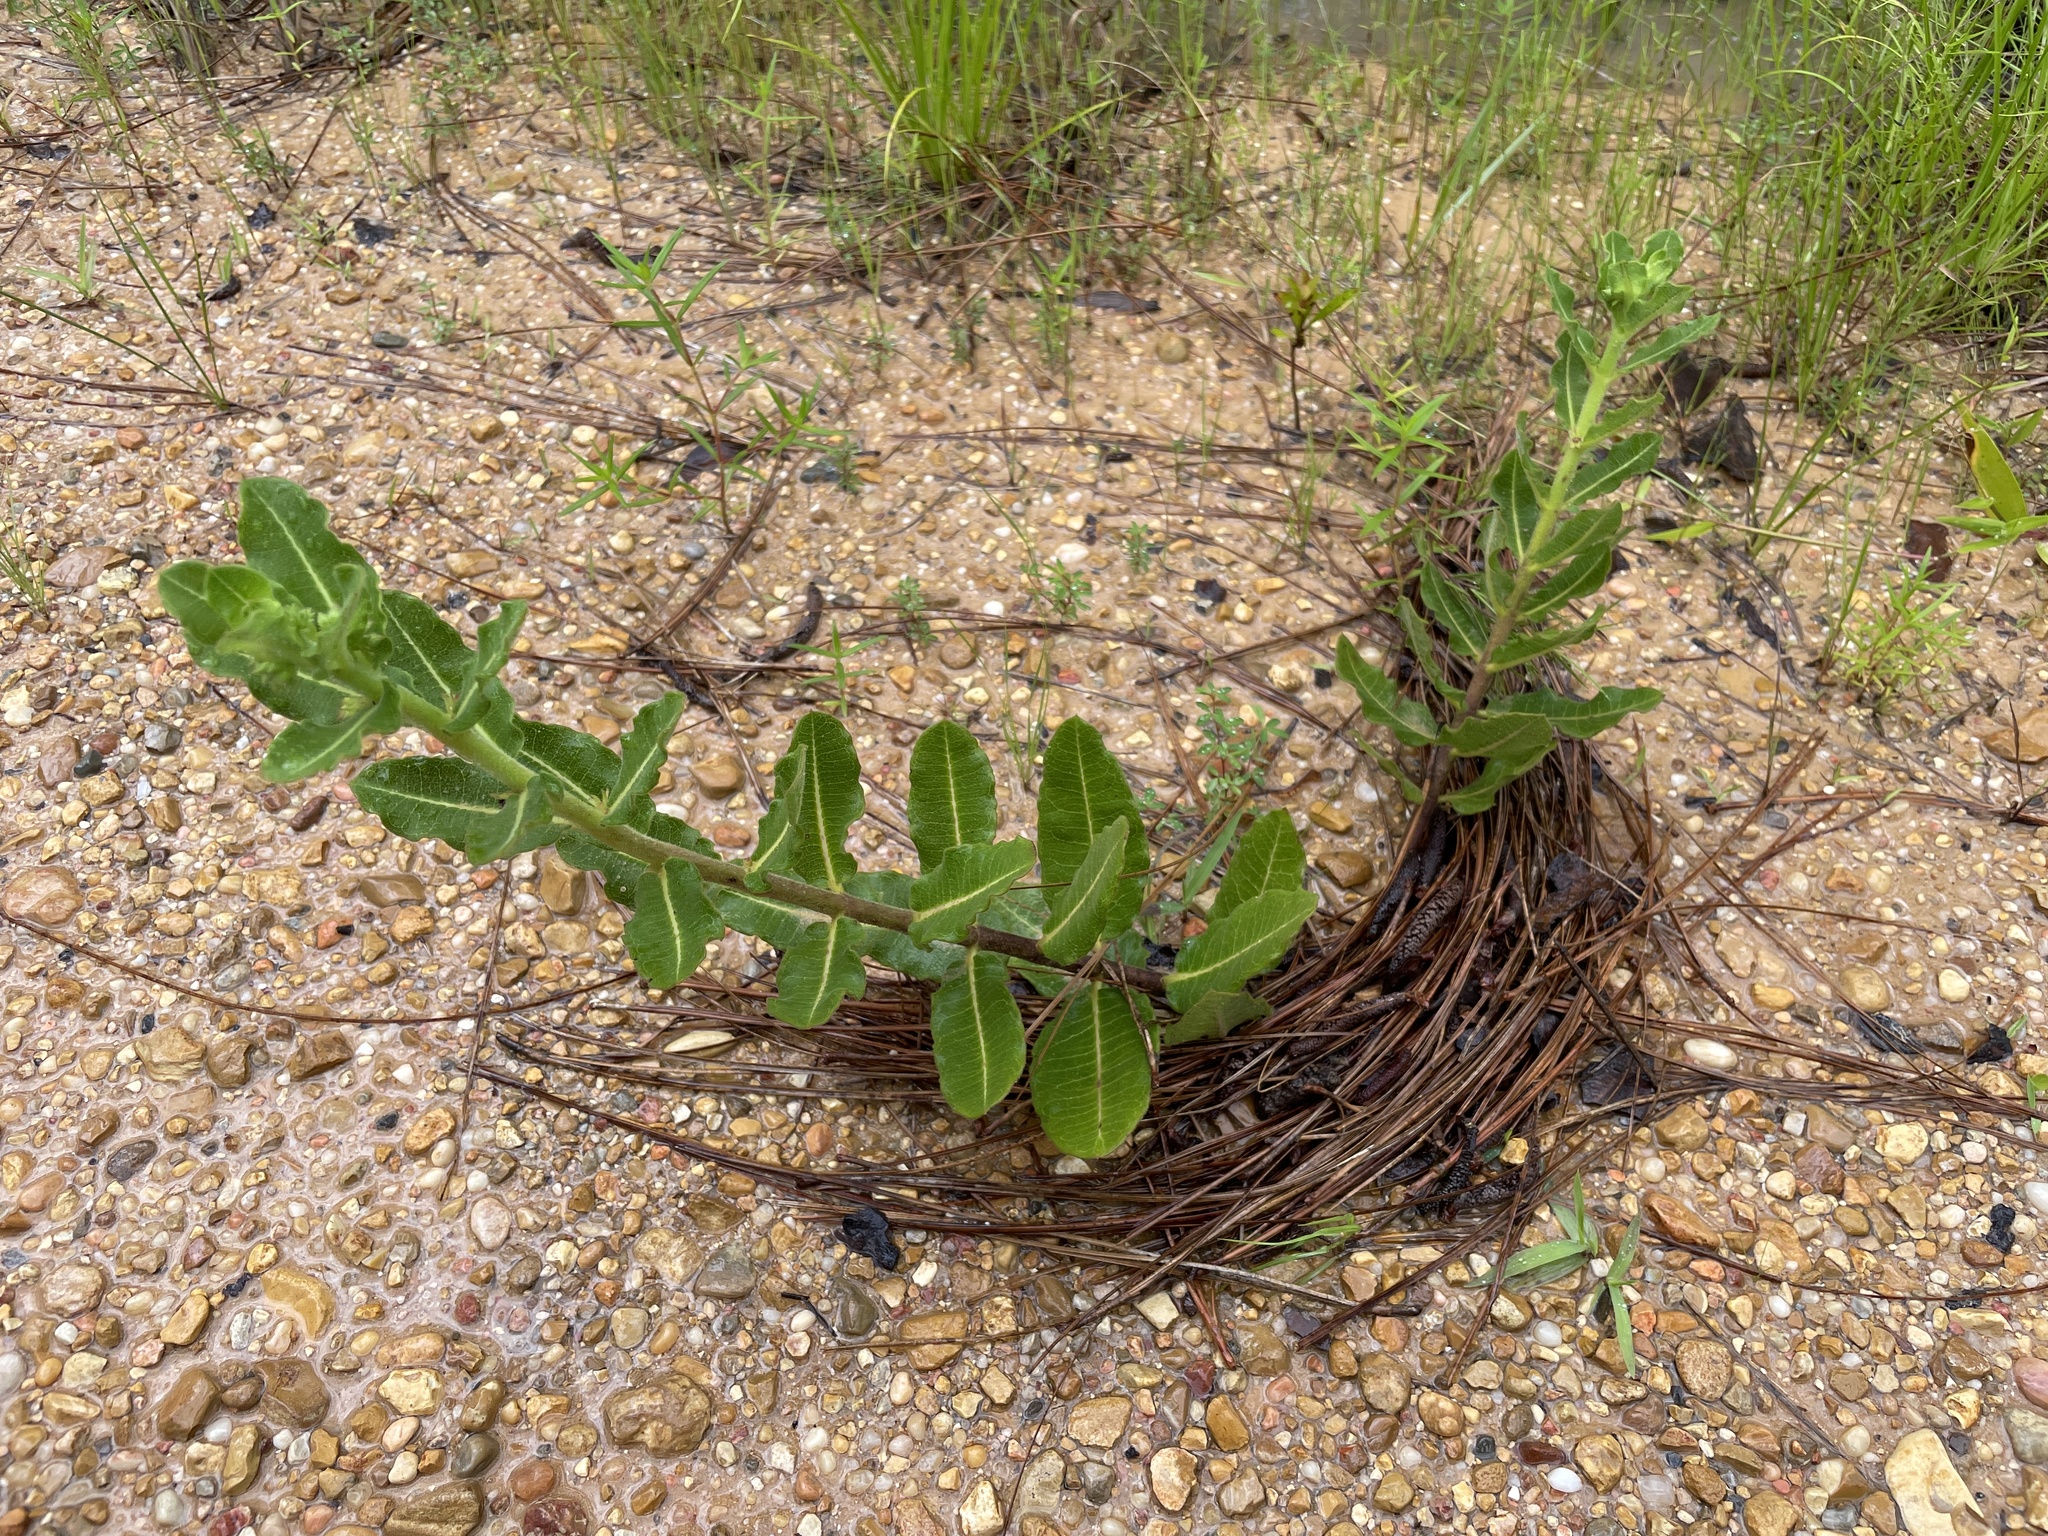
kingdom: Plantae
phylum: Tracheophyta
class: Magnoliopsida
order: Gentianales
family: Apocynaceae
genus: Asclepias
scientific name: Asclepias obovata
